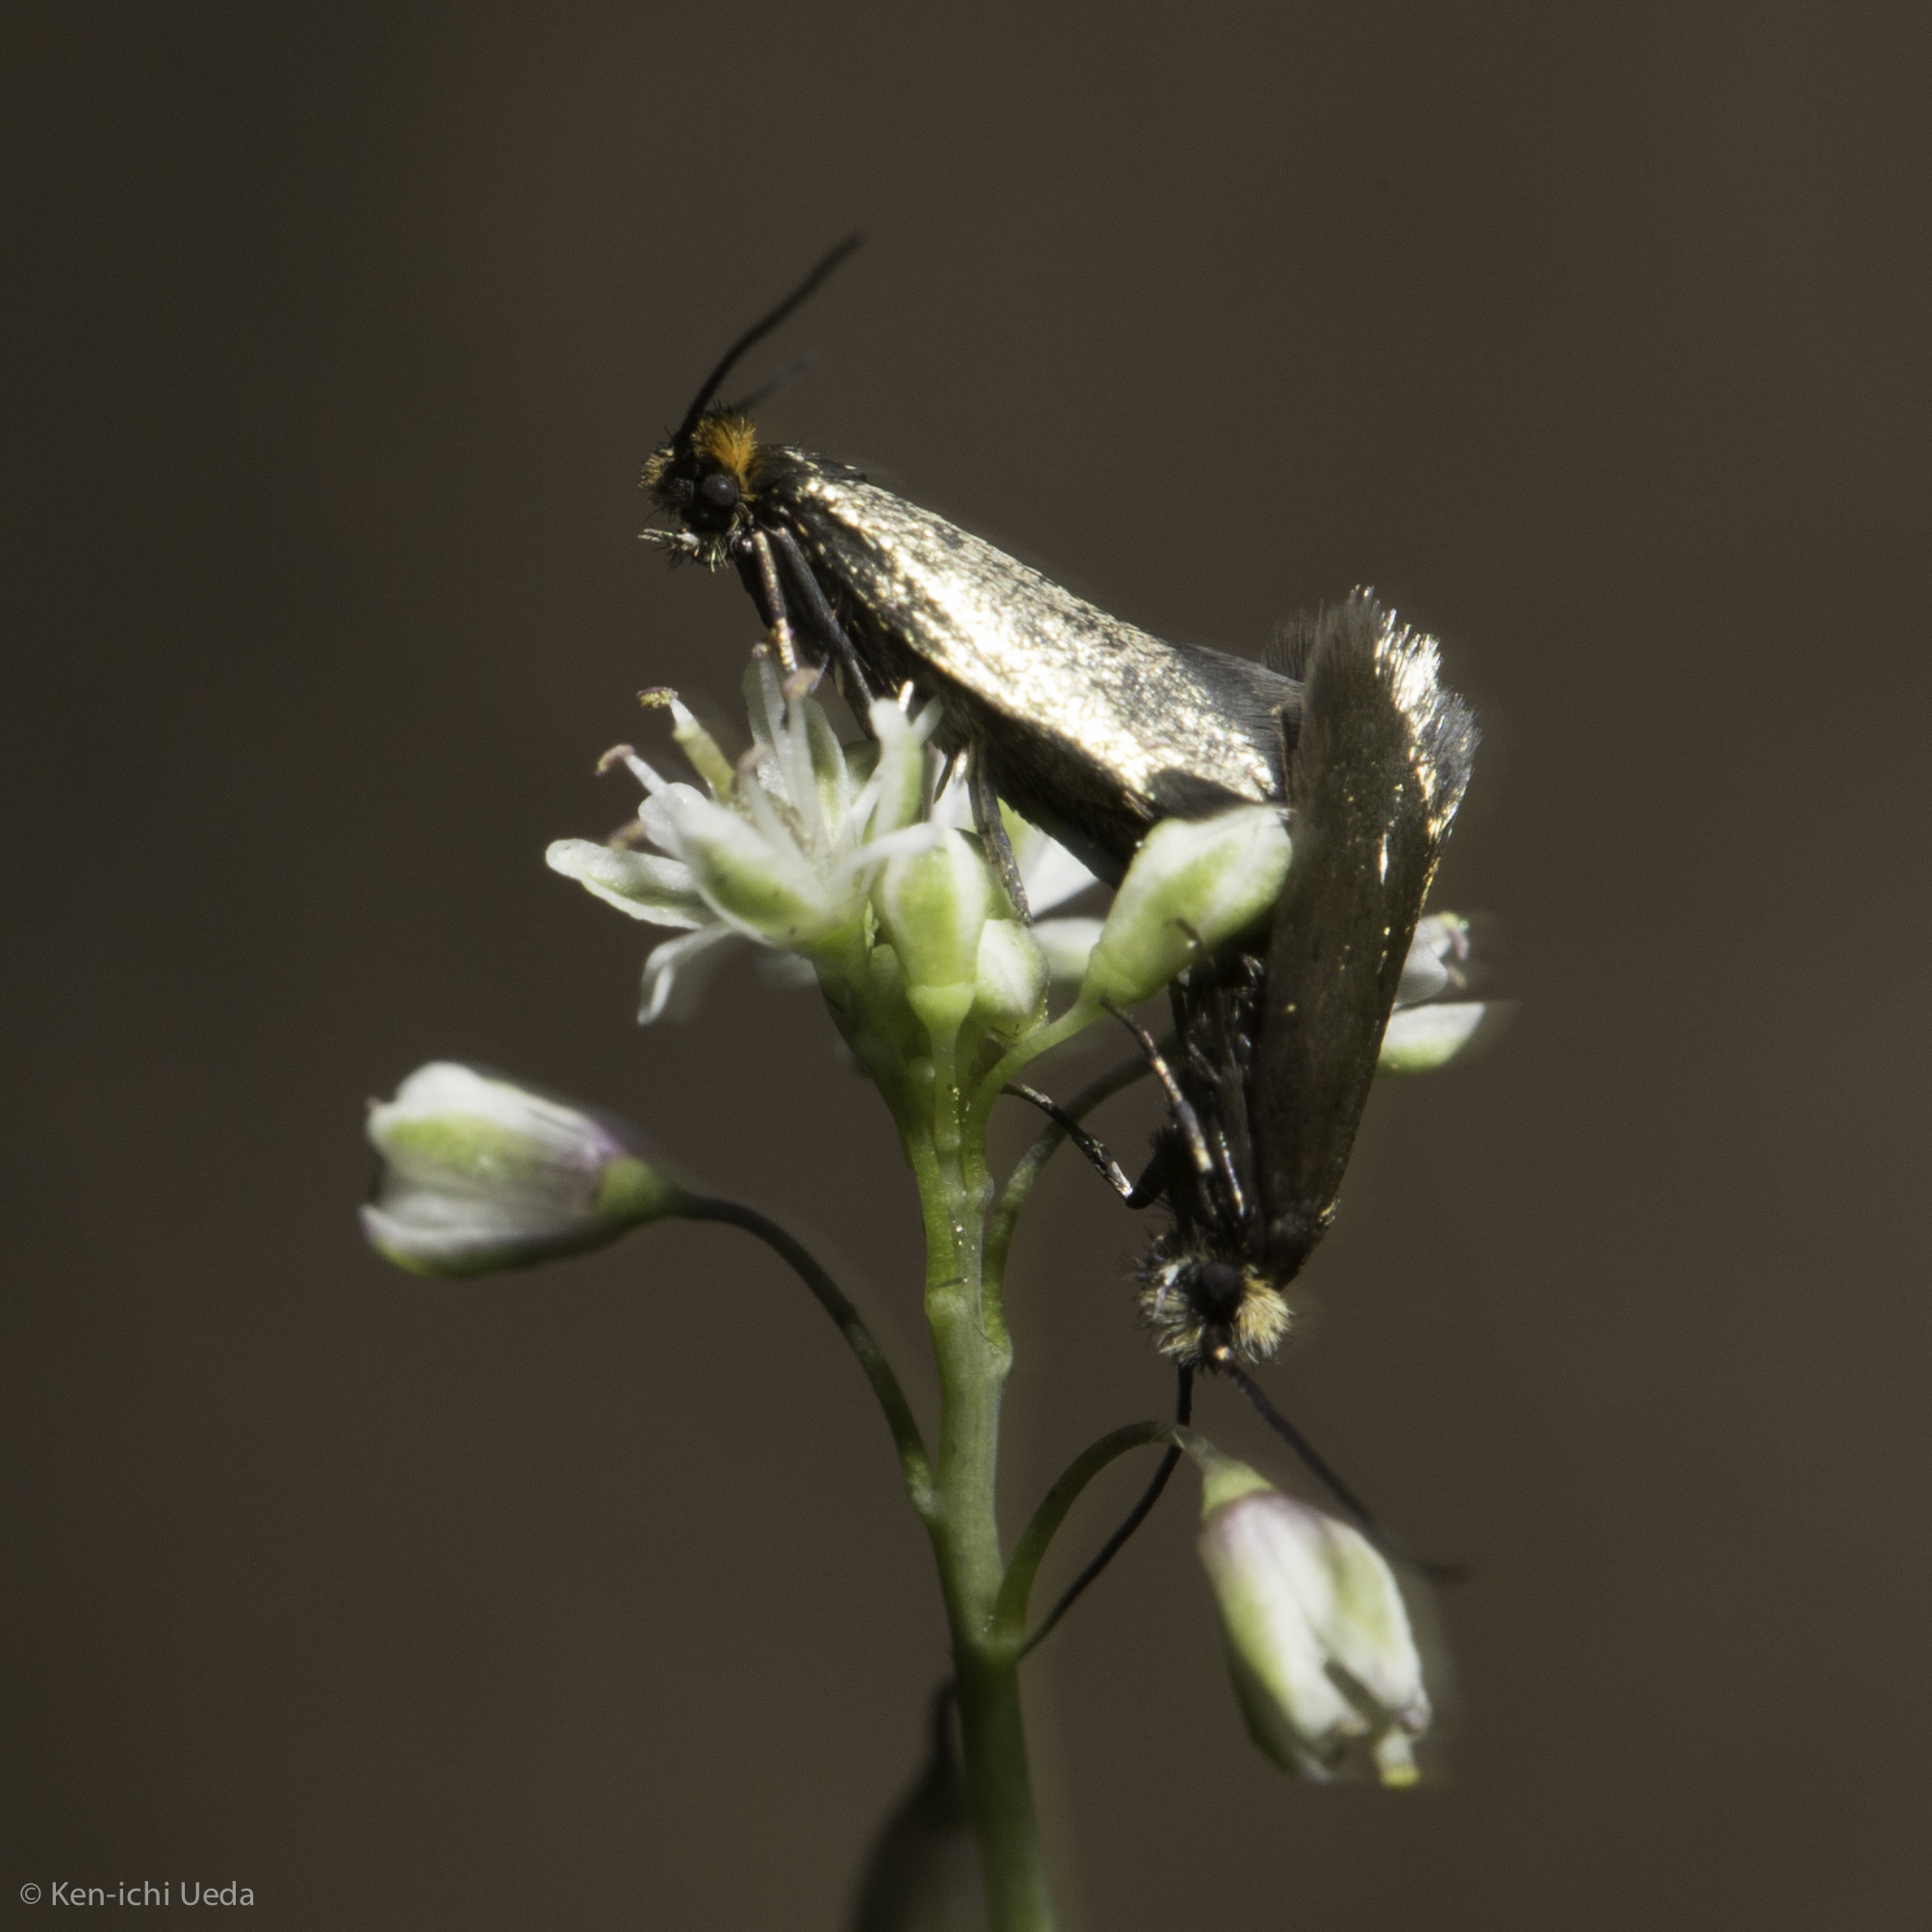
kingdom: Animalia
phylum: Arthropoda
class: Insecta
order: Lepidoptera
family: Adelidae
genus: Cauchas
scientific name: Cauchas simpliciella
